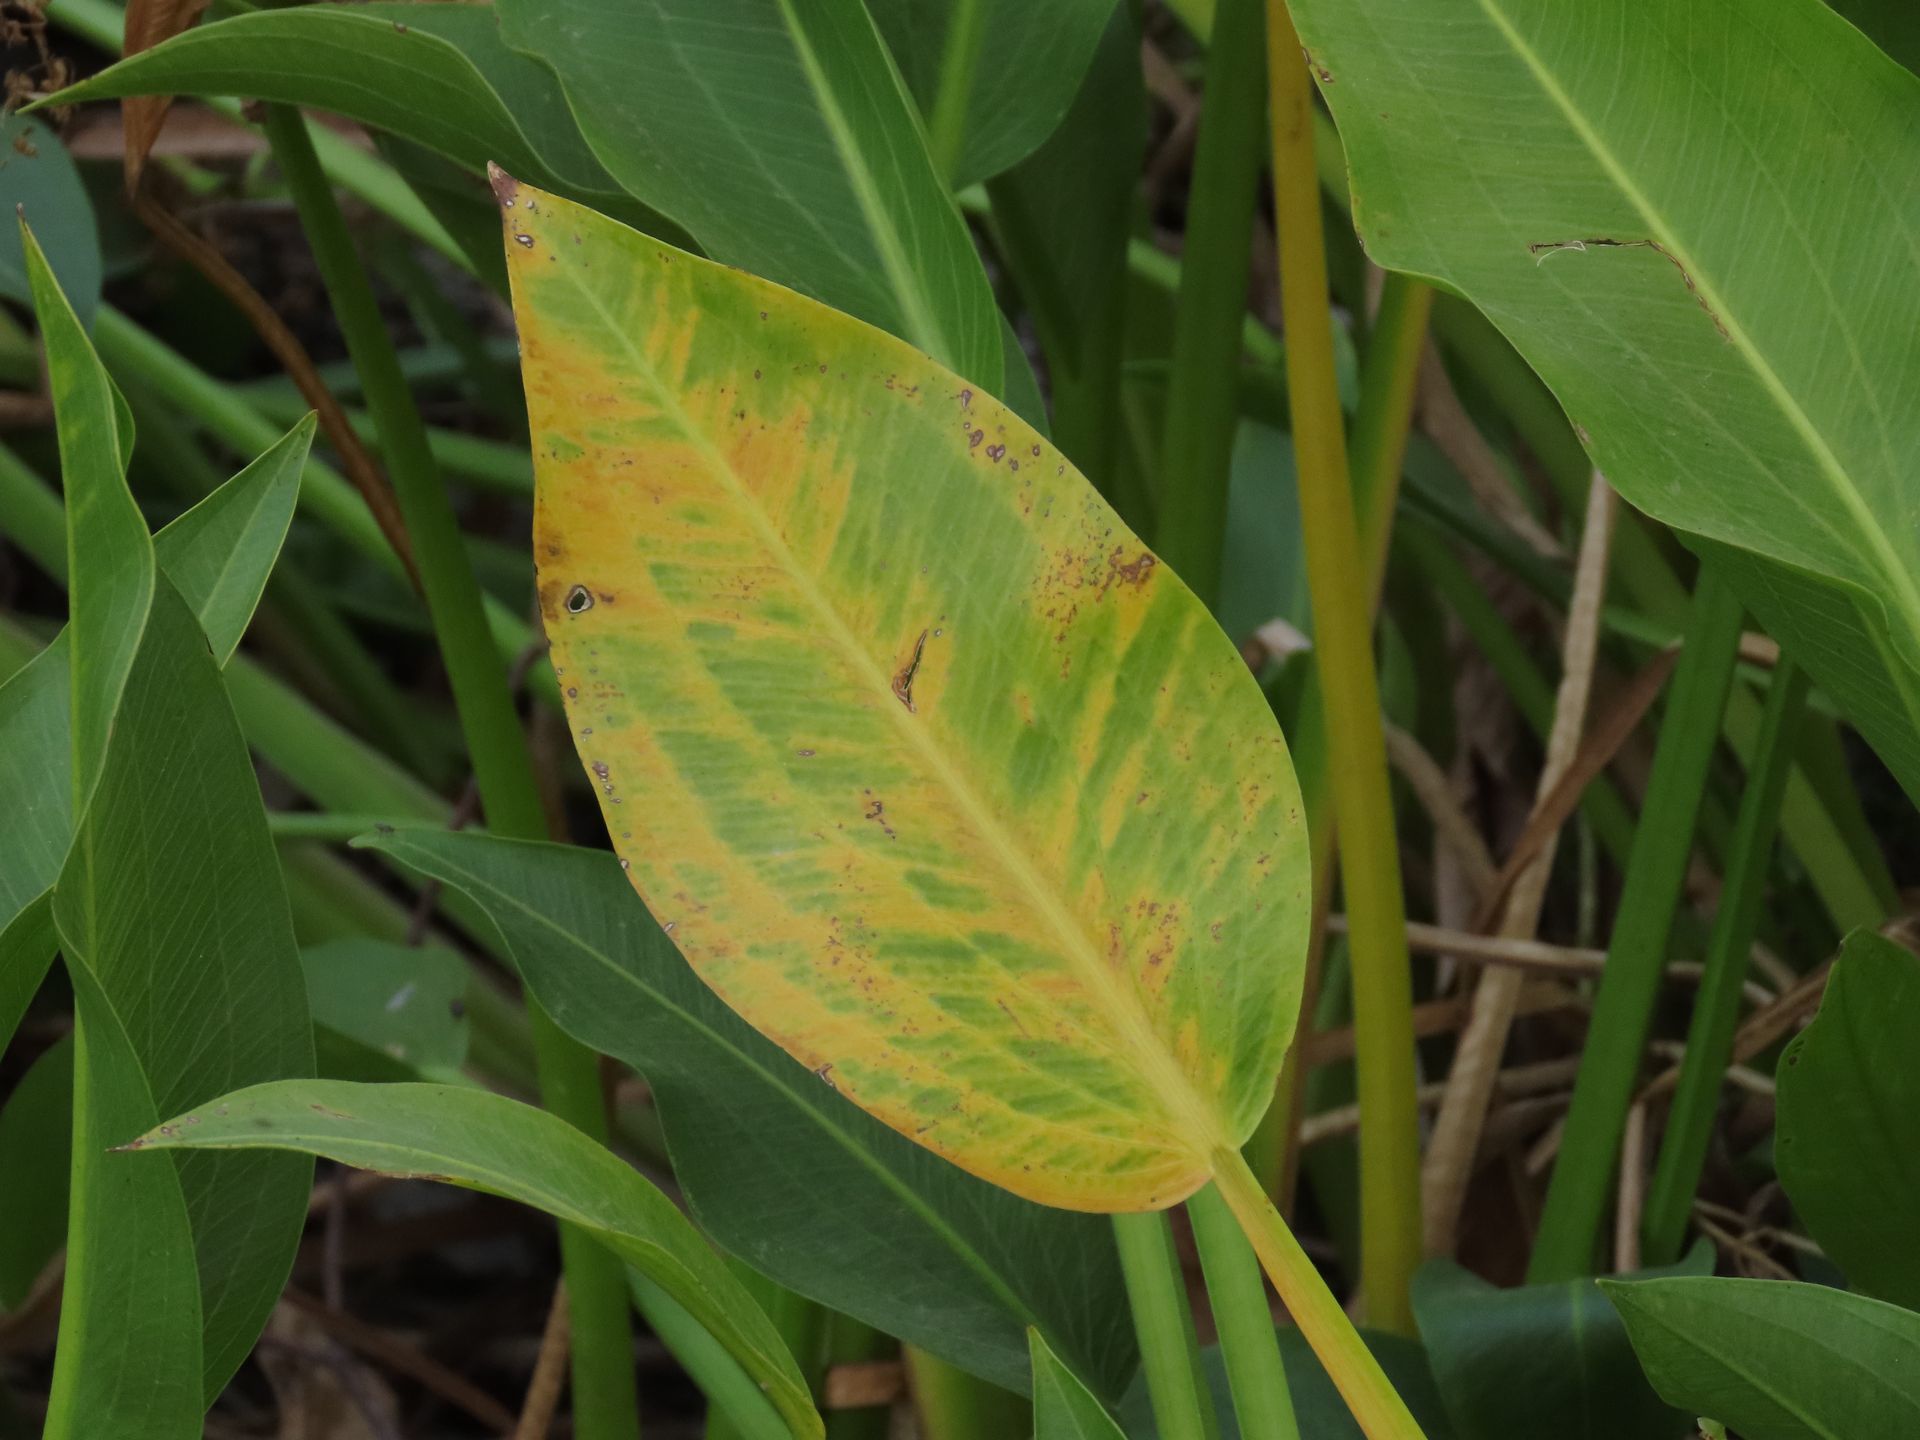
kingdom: Plantae
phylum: Tracheophyta
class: Liliopsida
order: Alismatales
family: Alismataceae
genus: Sagittaria
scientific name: Sagittaria platyphylla
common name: Broad-leaf arrowhead
